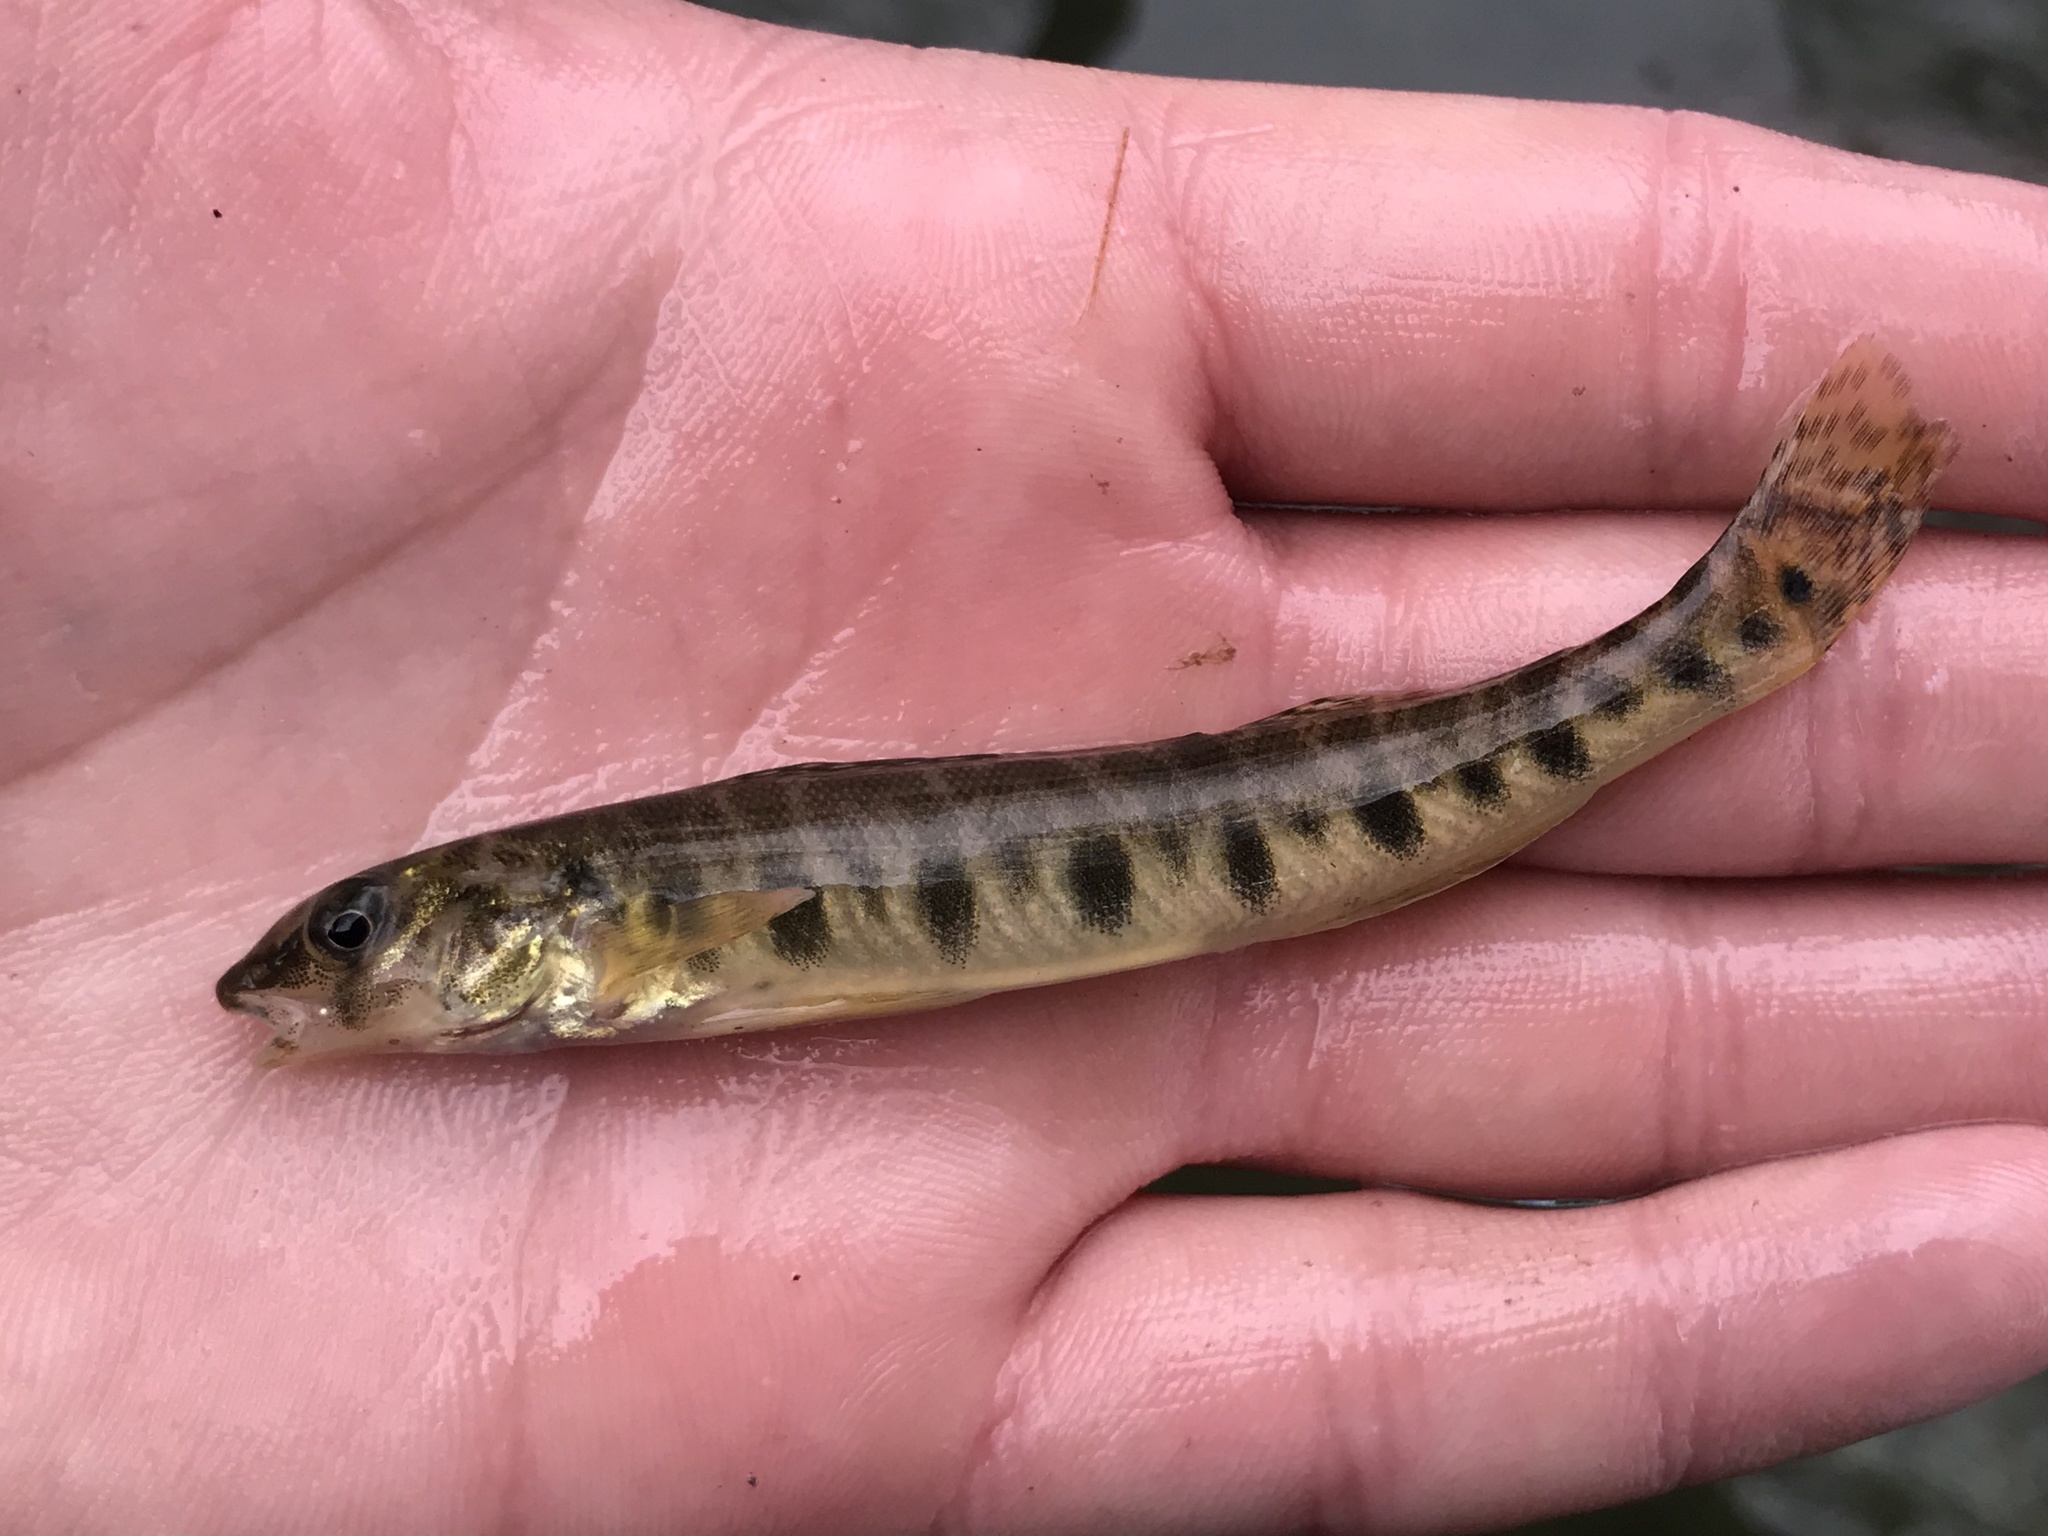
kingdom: Animalia
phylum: Chordata
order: Perciformes
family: Percidae
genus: Percina
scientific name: Percina carbonaria
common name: Texas logperch
